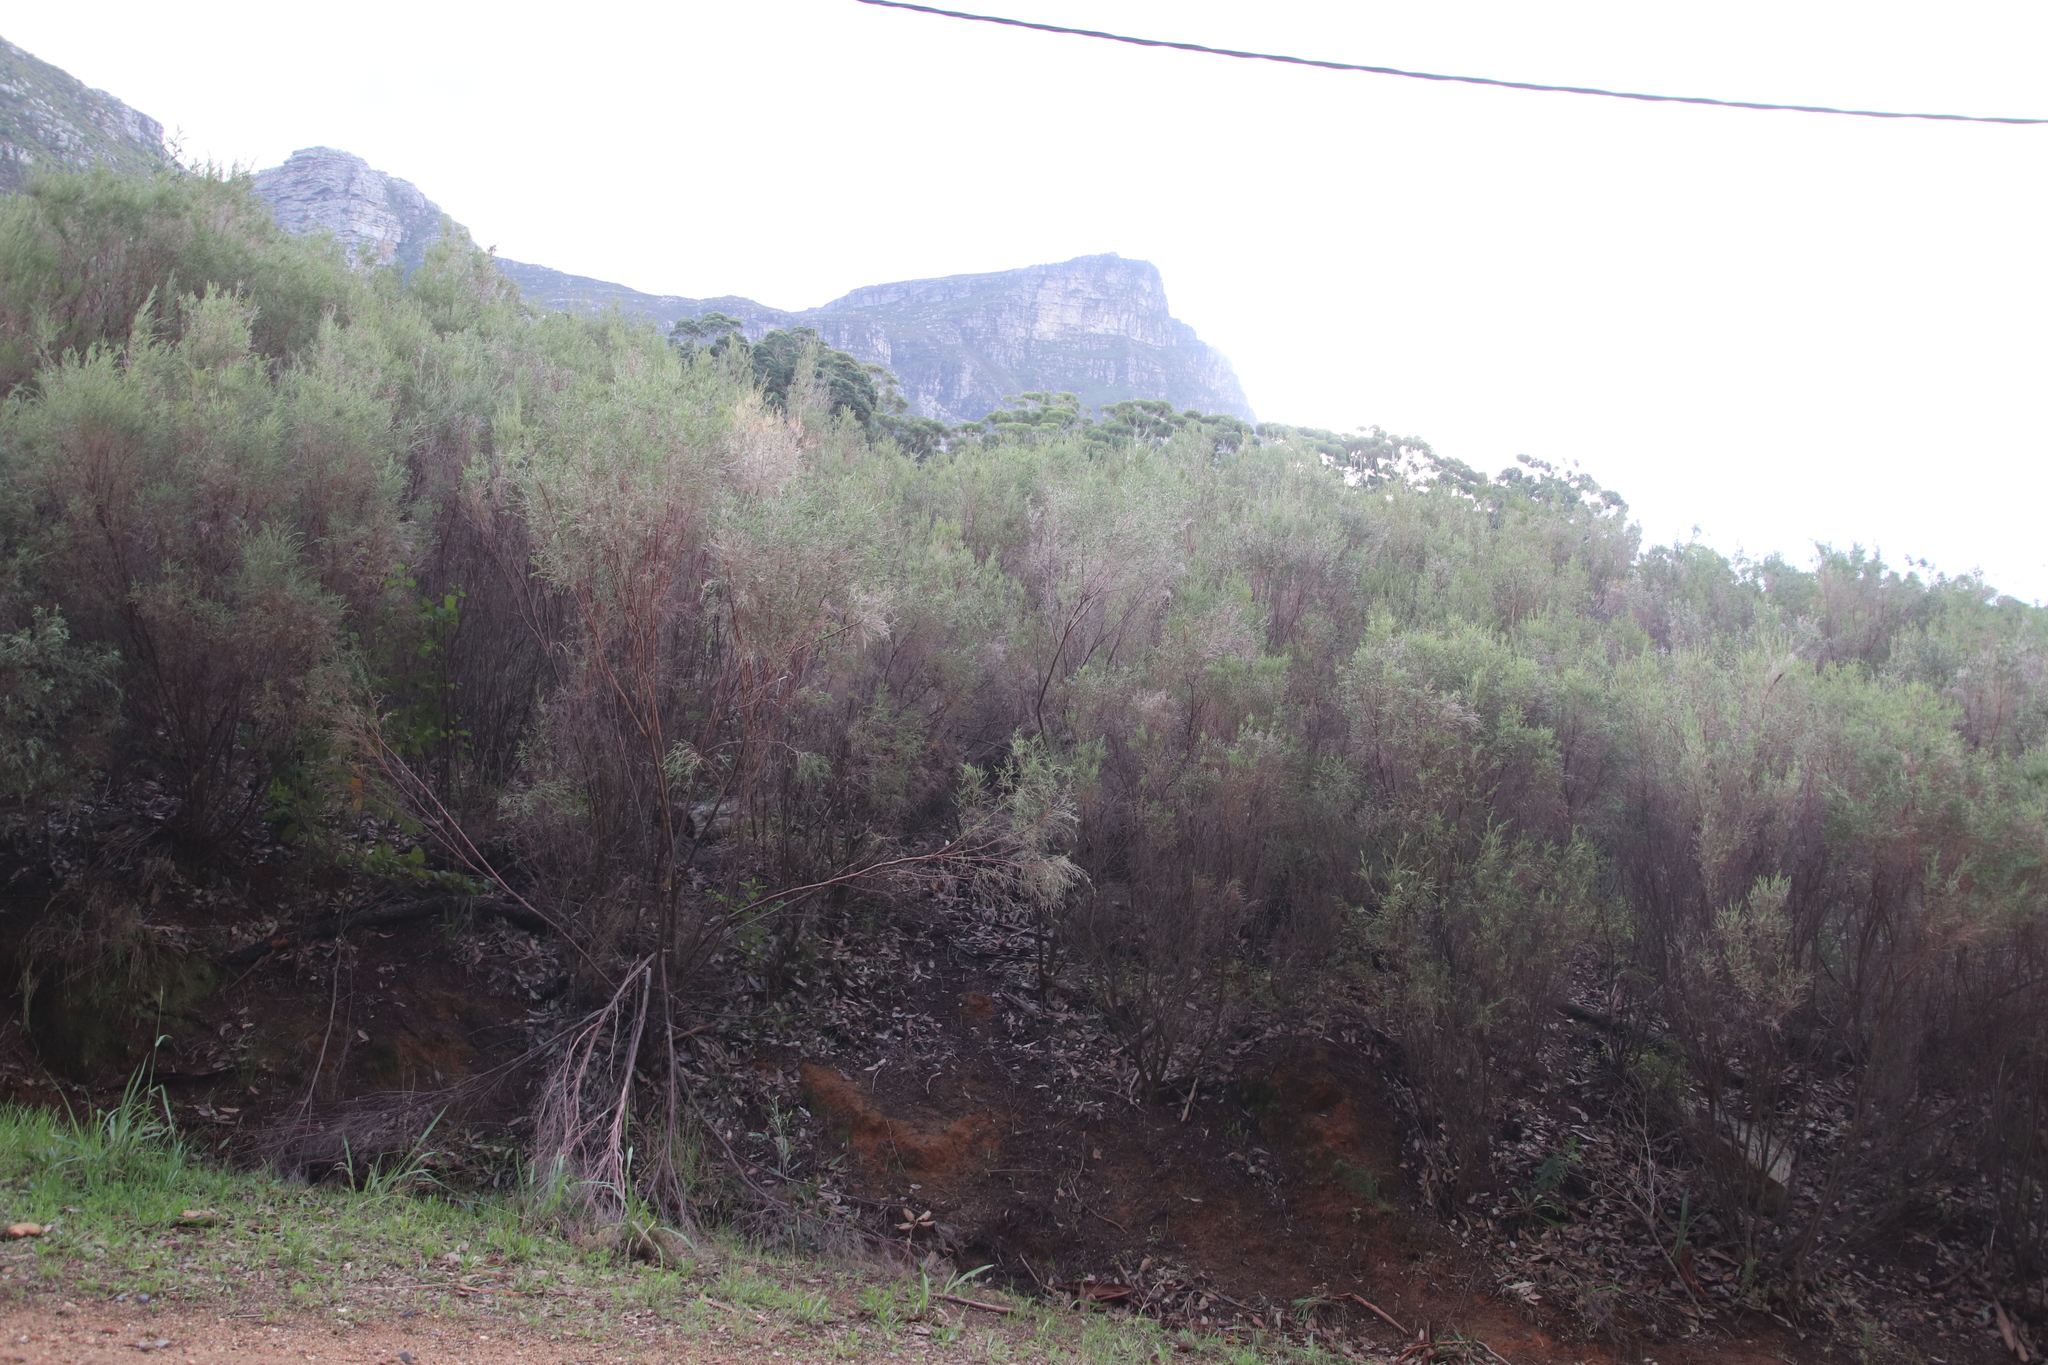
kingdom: Plantae
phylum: Tracheophyta
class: Magnoliopsida
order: Malvales
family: Thymelaeaceae
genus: Passerina
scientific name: Passerina corymbosa
